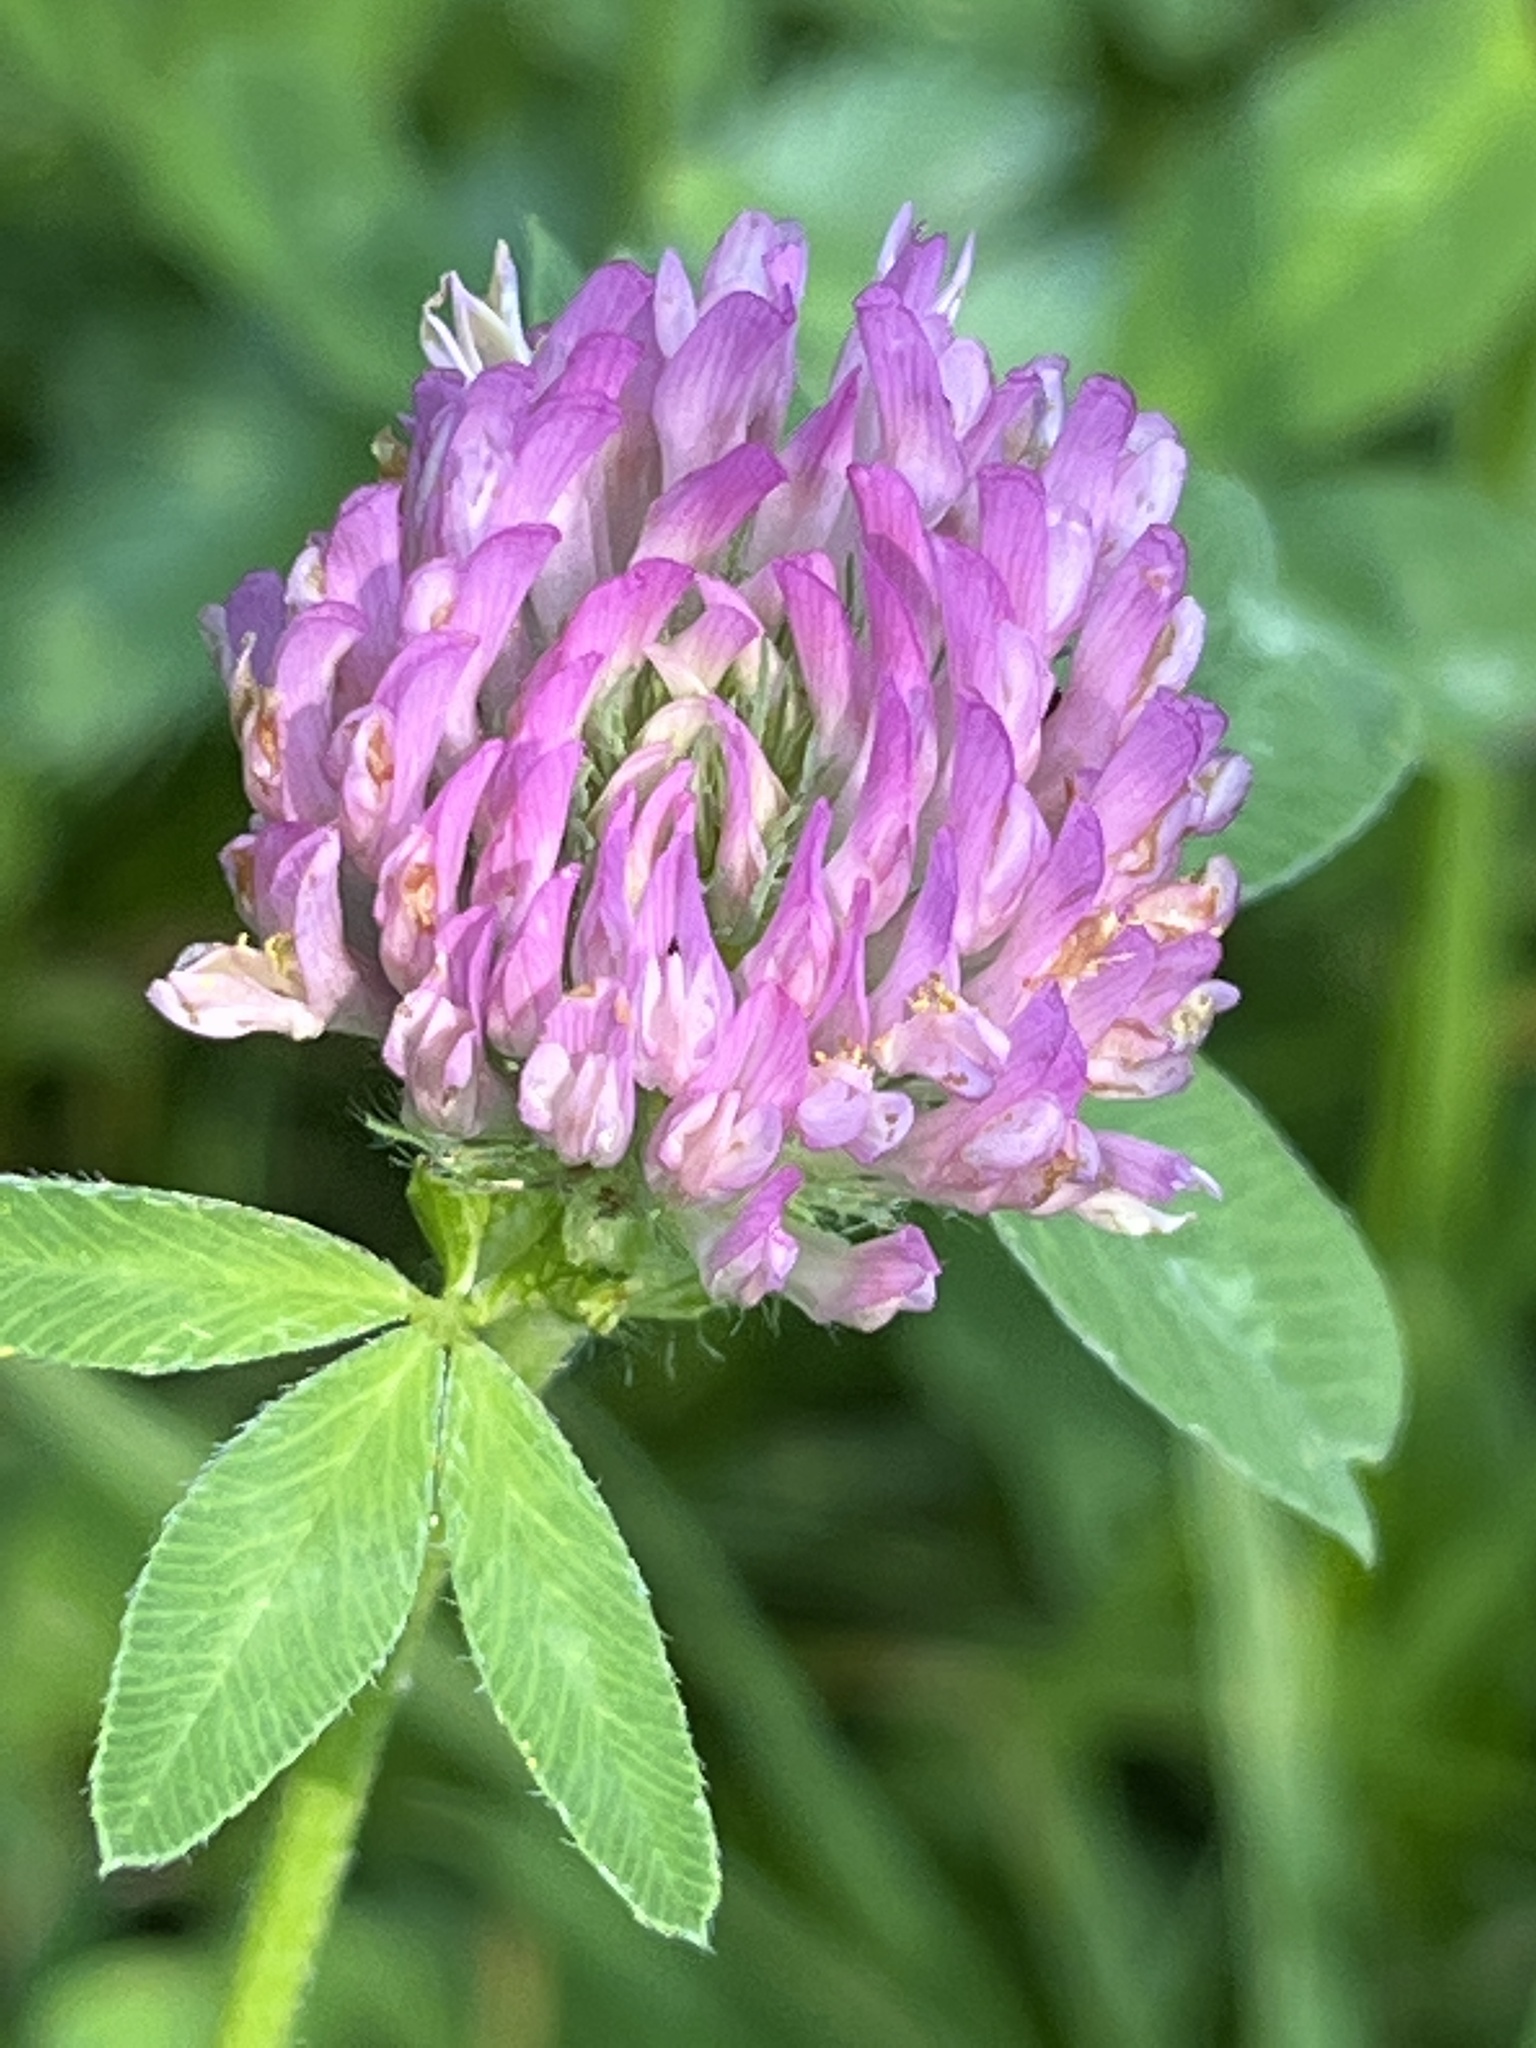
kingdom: Plantae
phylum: Tracheophyta
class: Magnoliopsida
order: Fabales
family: Fabaceae
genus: Trifolium
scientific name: Trifolium pratense
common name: Red clover
